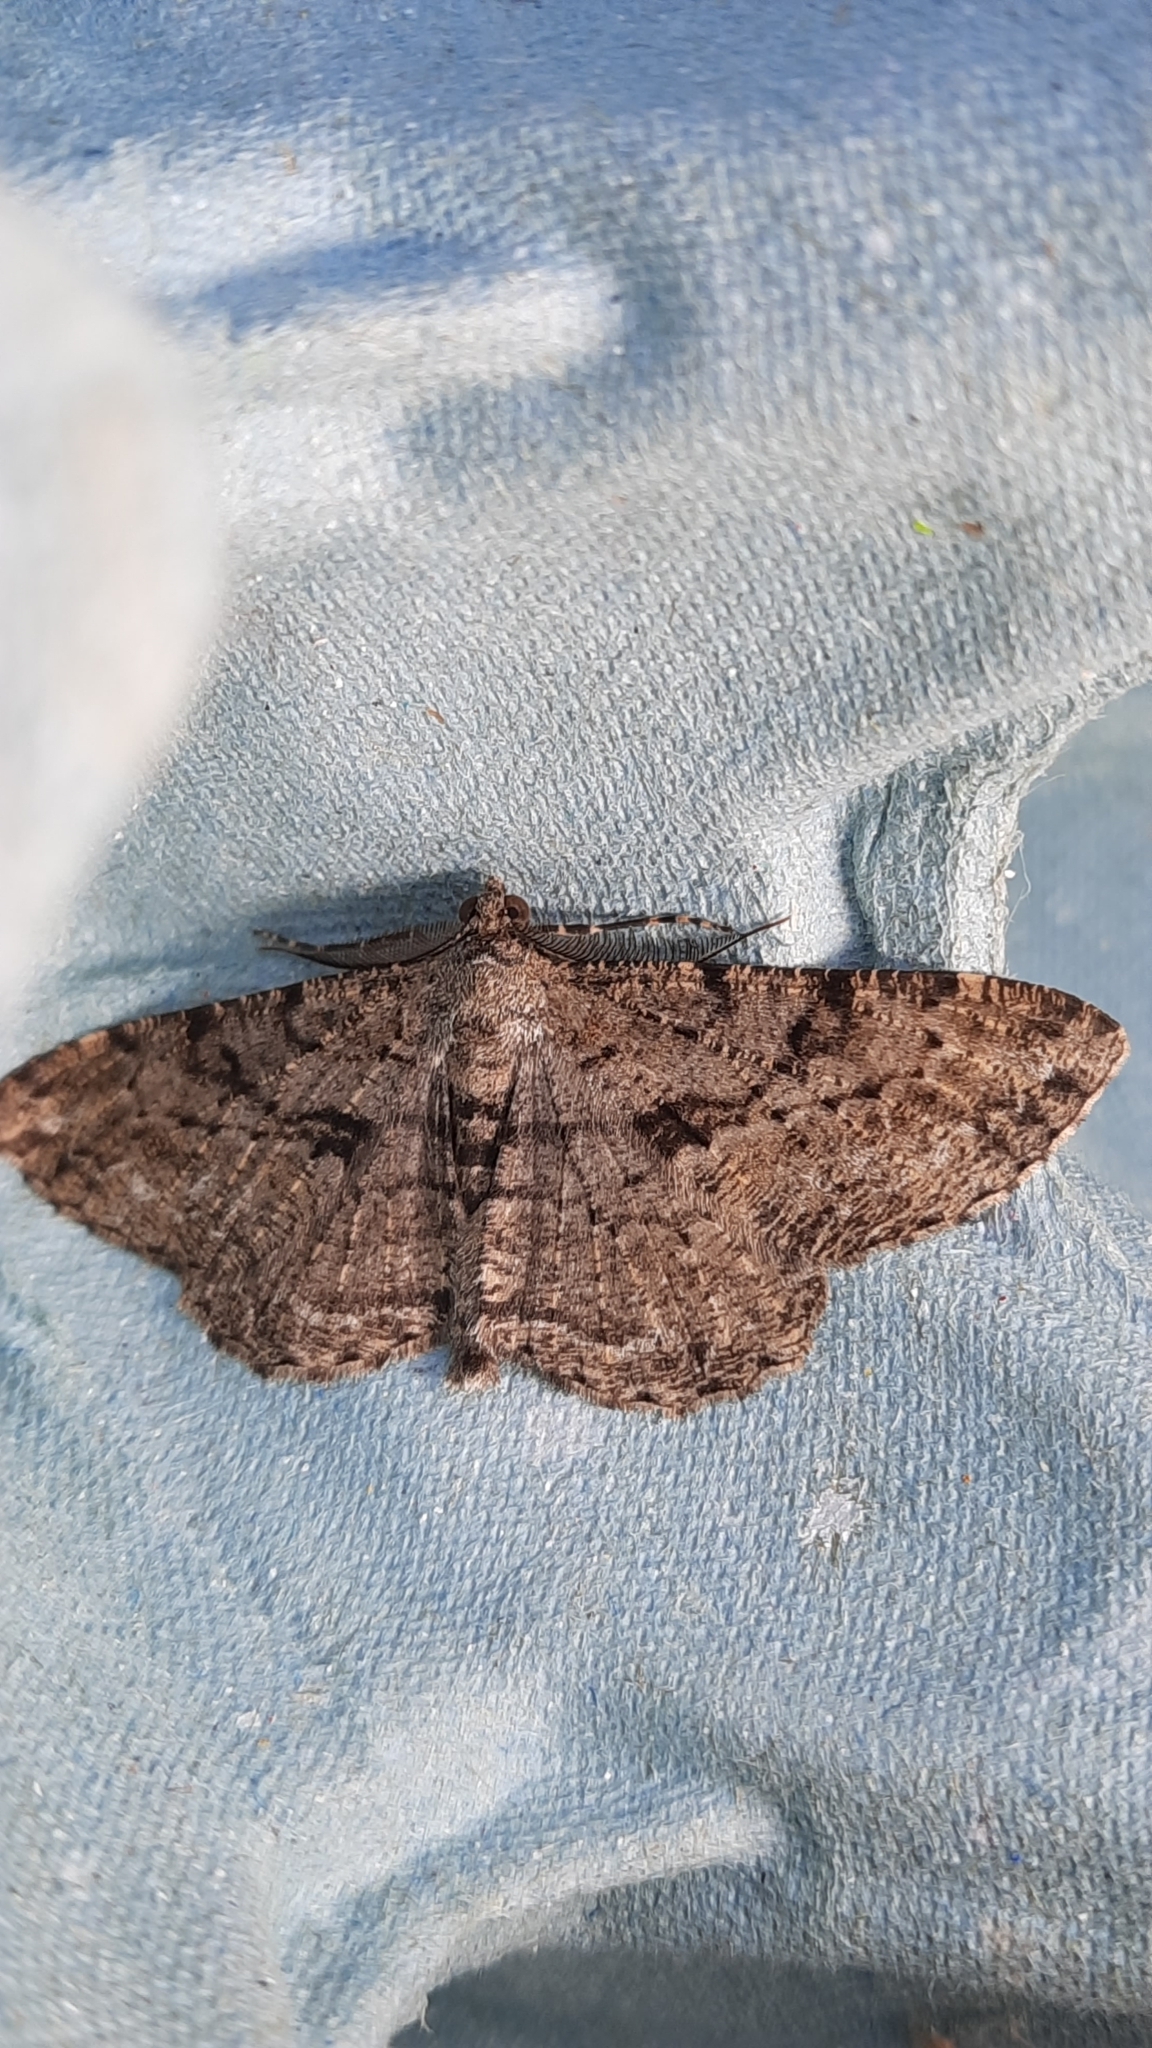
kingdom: Animalia
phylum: Arthropoda
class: Insecta
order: Lepidoptera
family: Geometridae
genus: Peribatodes
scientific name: Peribatodes rhomboidaria
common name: Willow beauty
